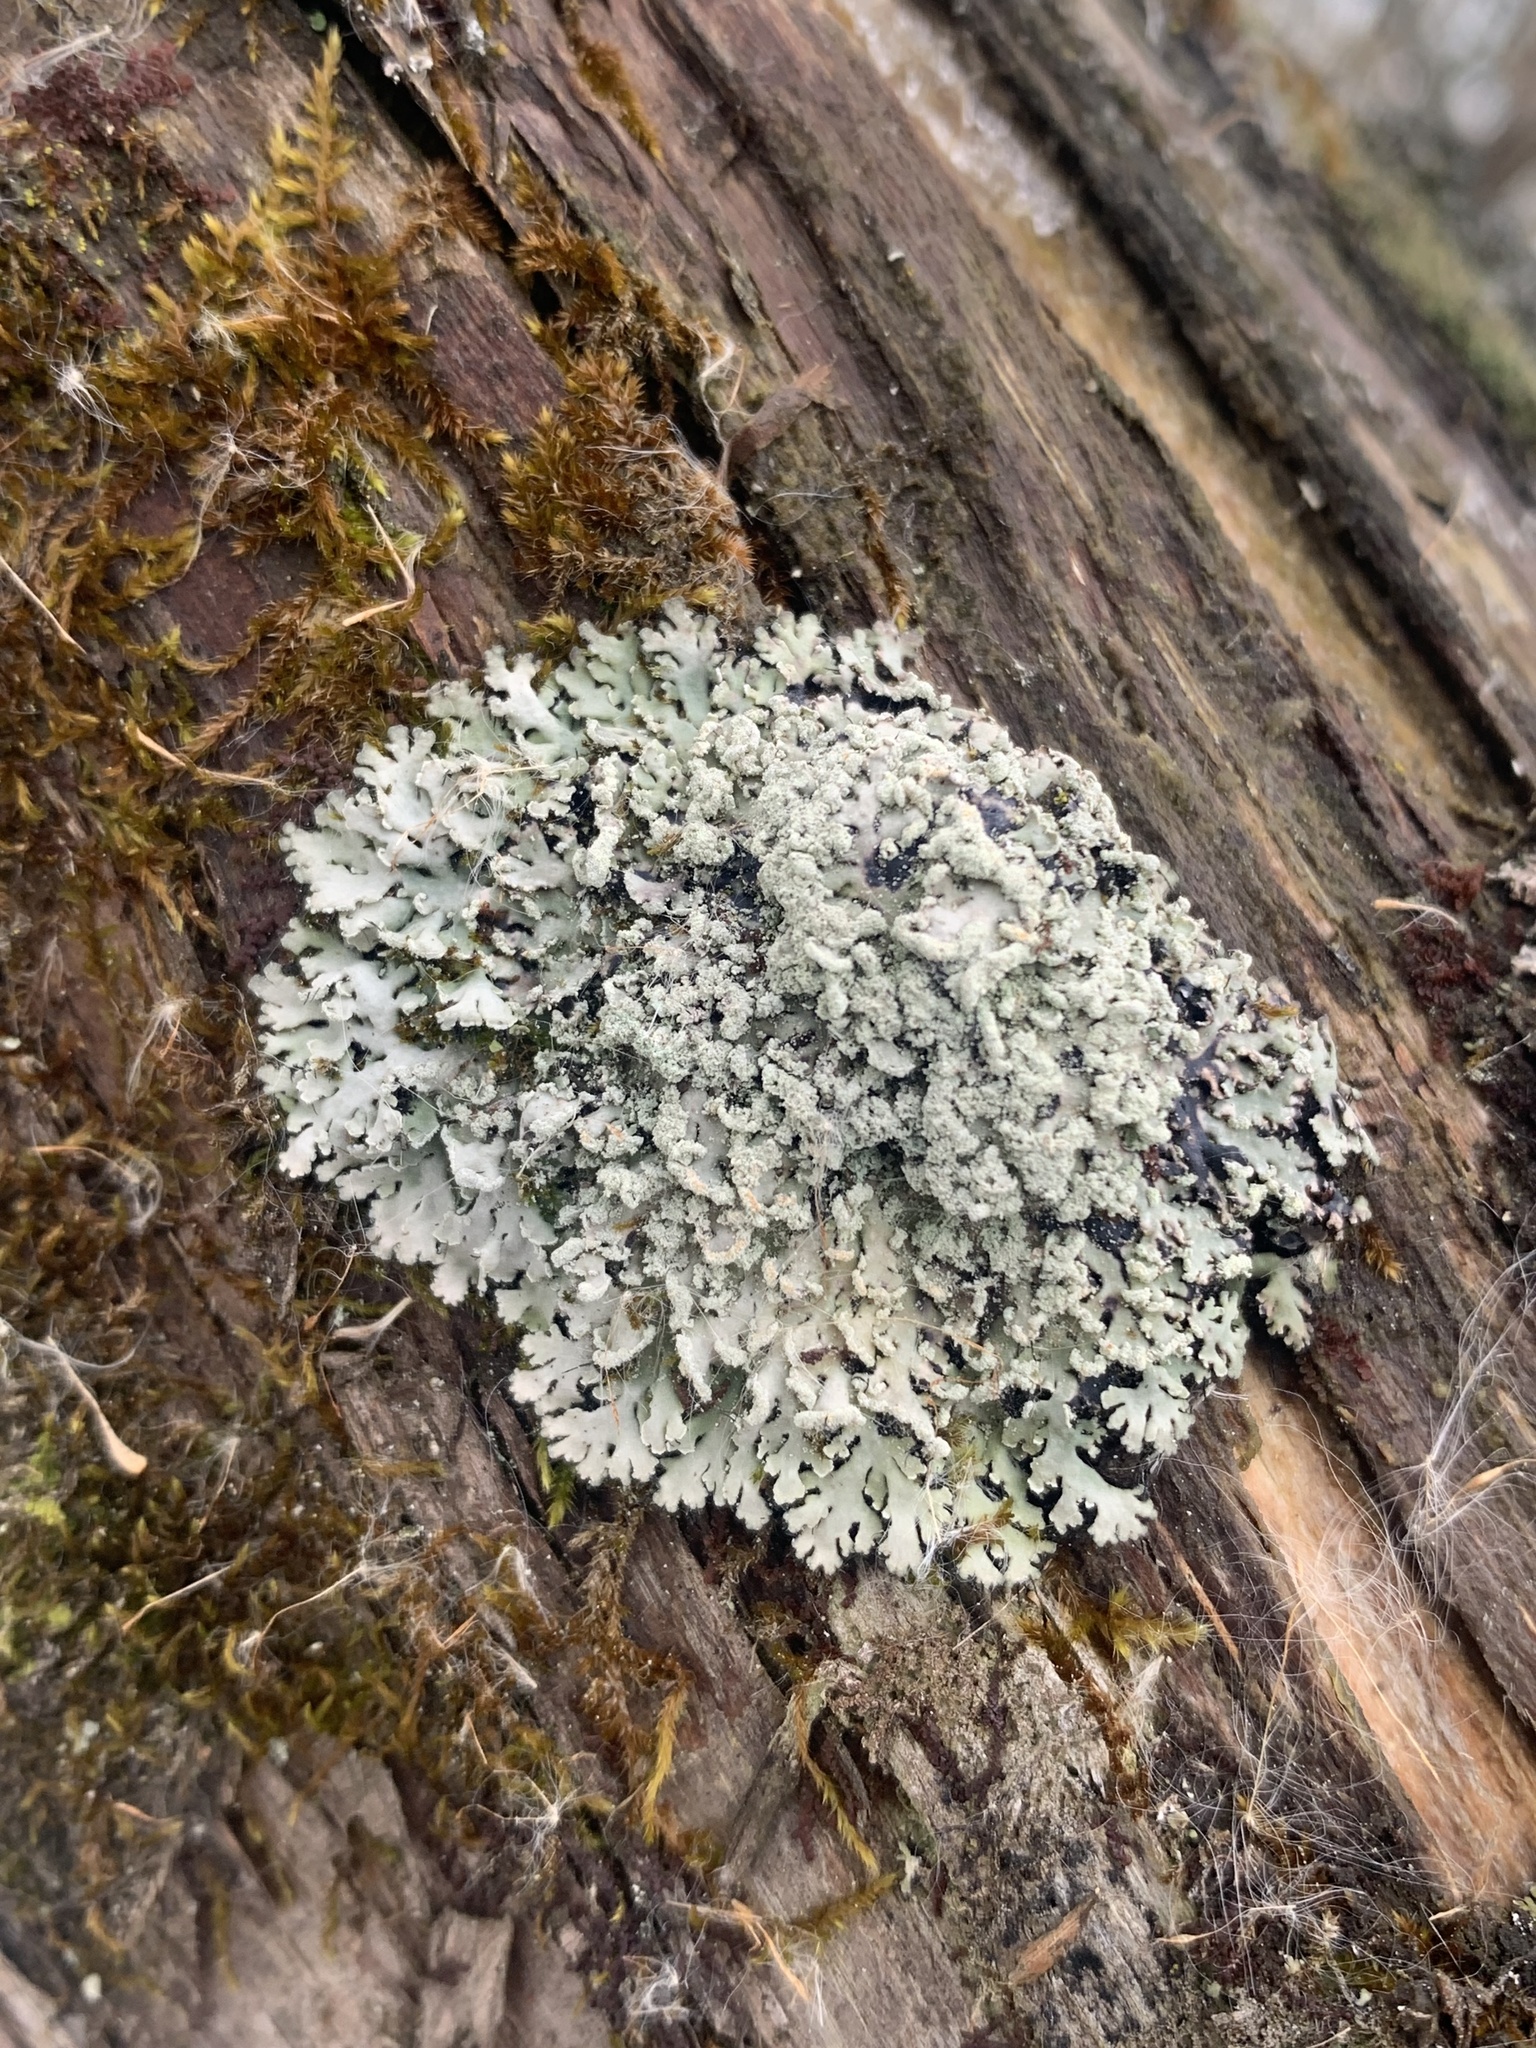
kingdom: Fungi
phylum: Ascomycota
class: Lecanoromycetes
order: Caliciales
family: Physciaceae
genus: Heterodermia
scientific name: Heterodermia obscurata
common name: Coralloid rosette-lichen
